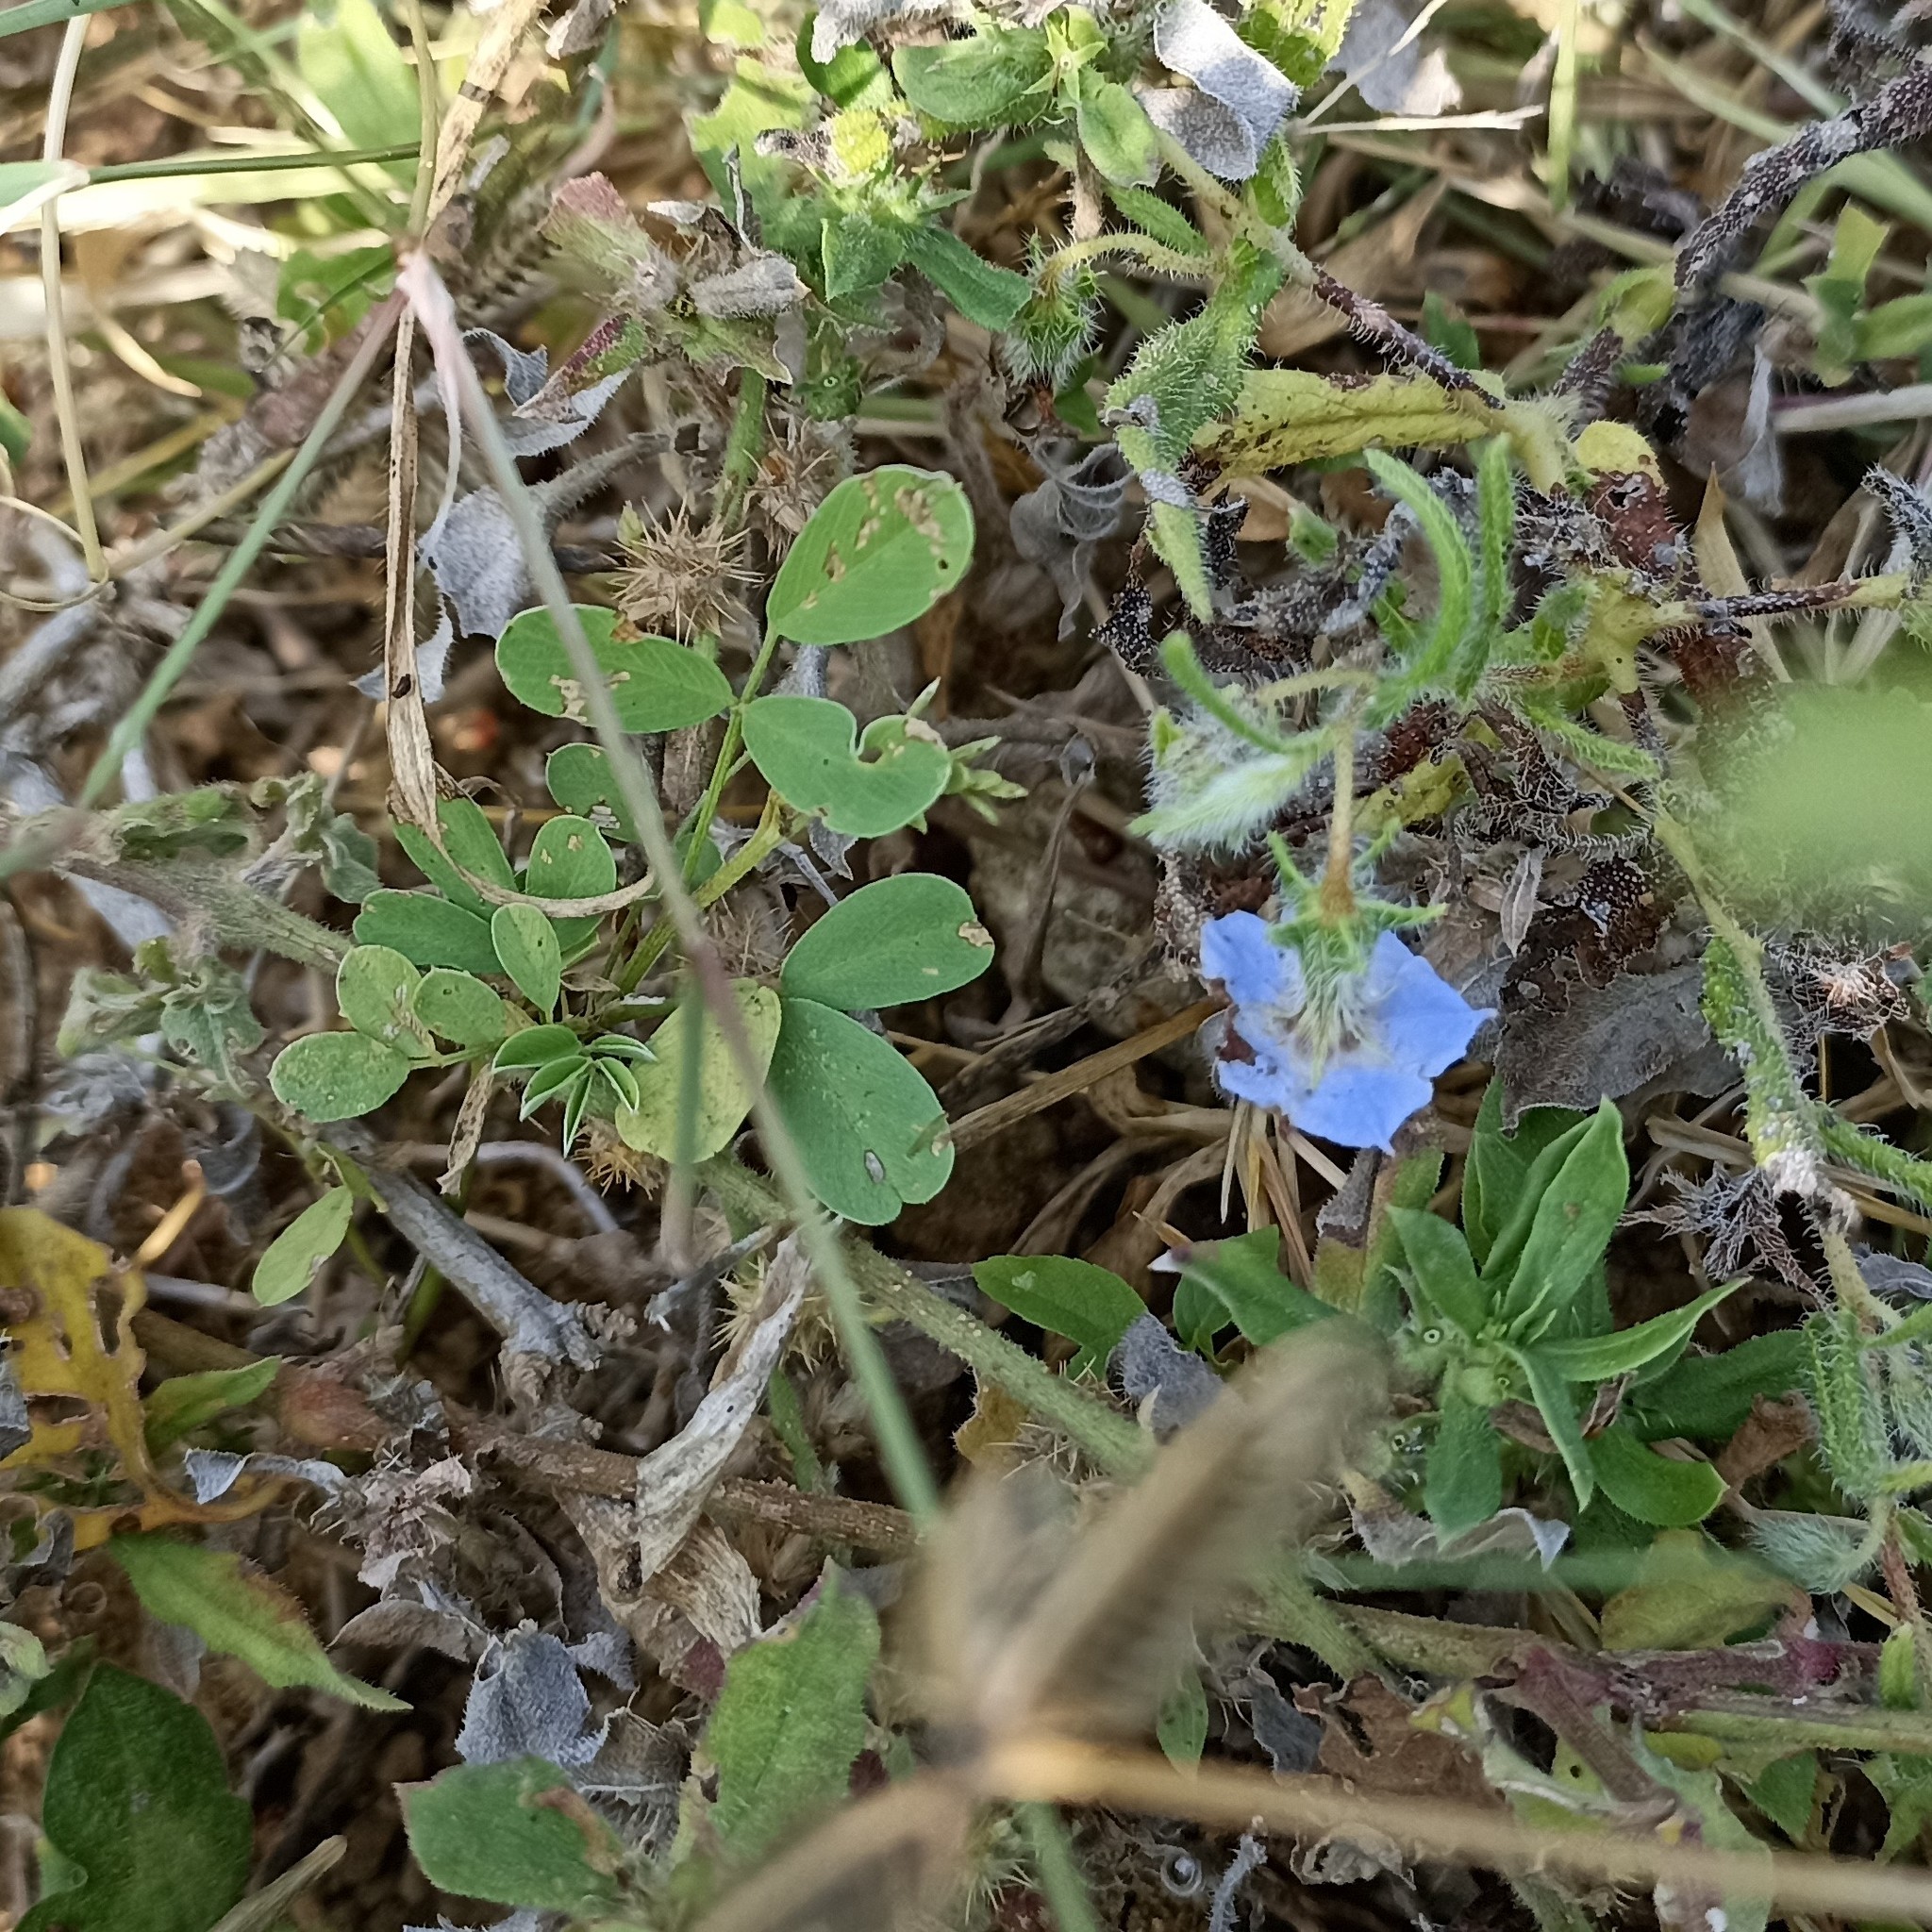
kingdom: Plantae
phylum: Tracheophyta
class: Magnoliopsida
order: Boraginales
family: Boraginaceae
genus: Trichodesma
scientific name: Trichodesma indicum
